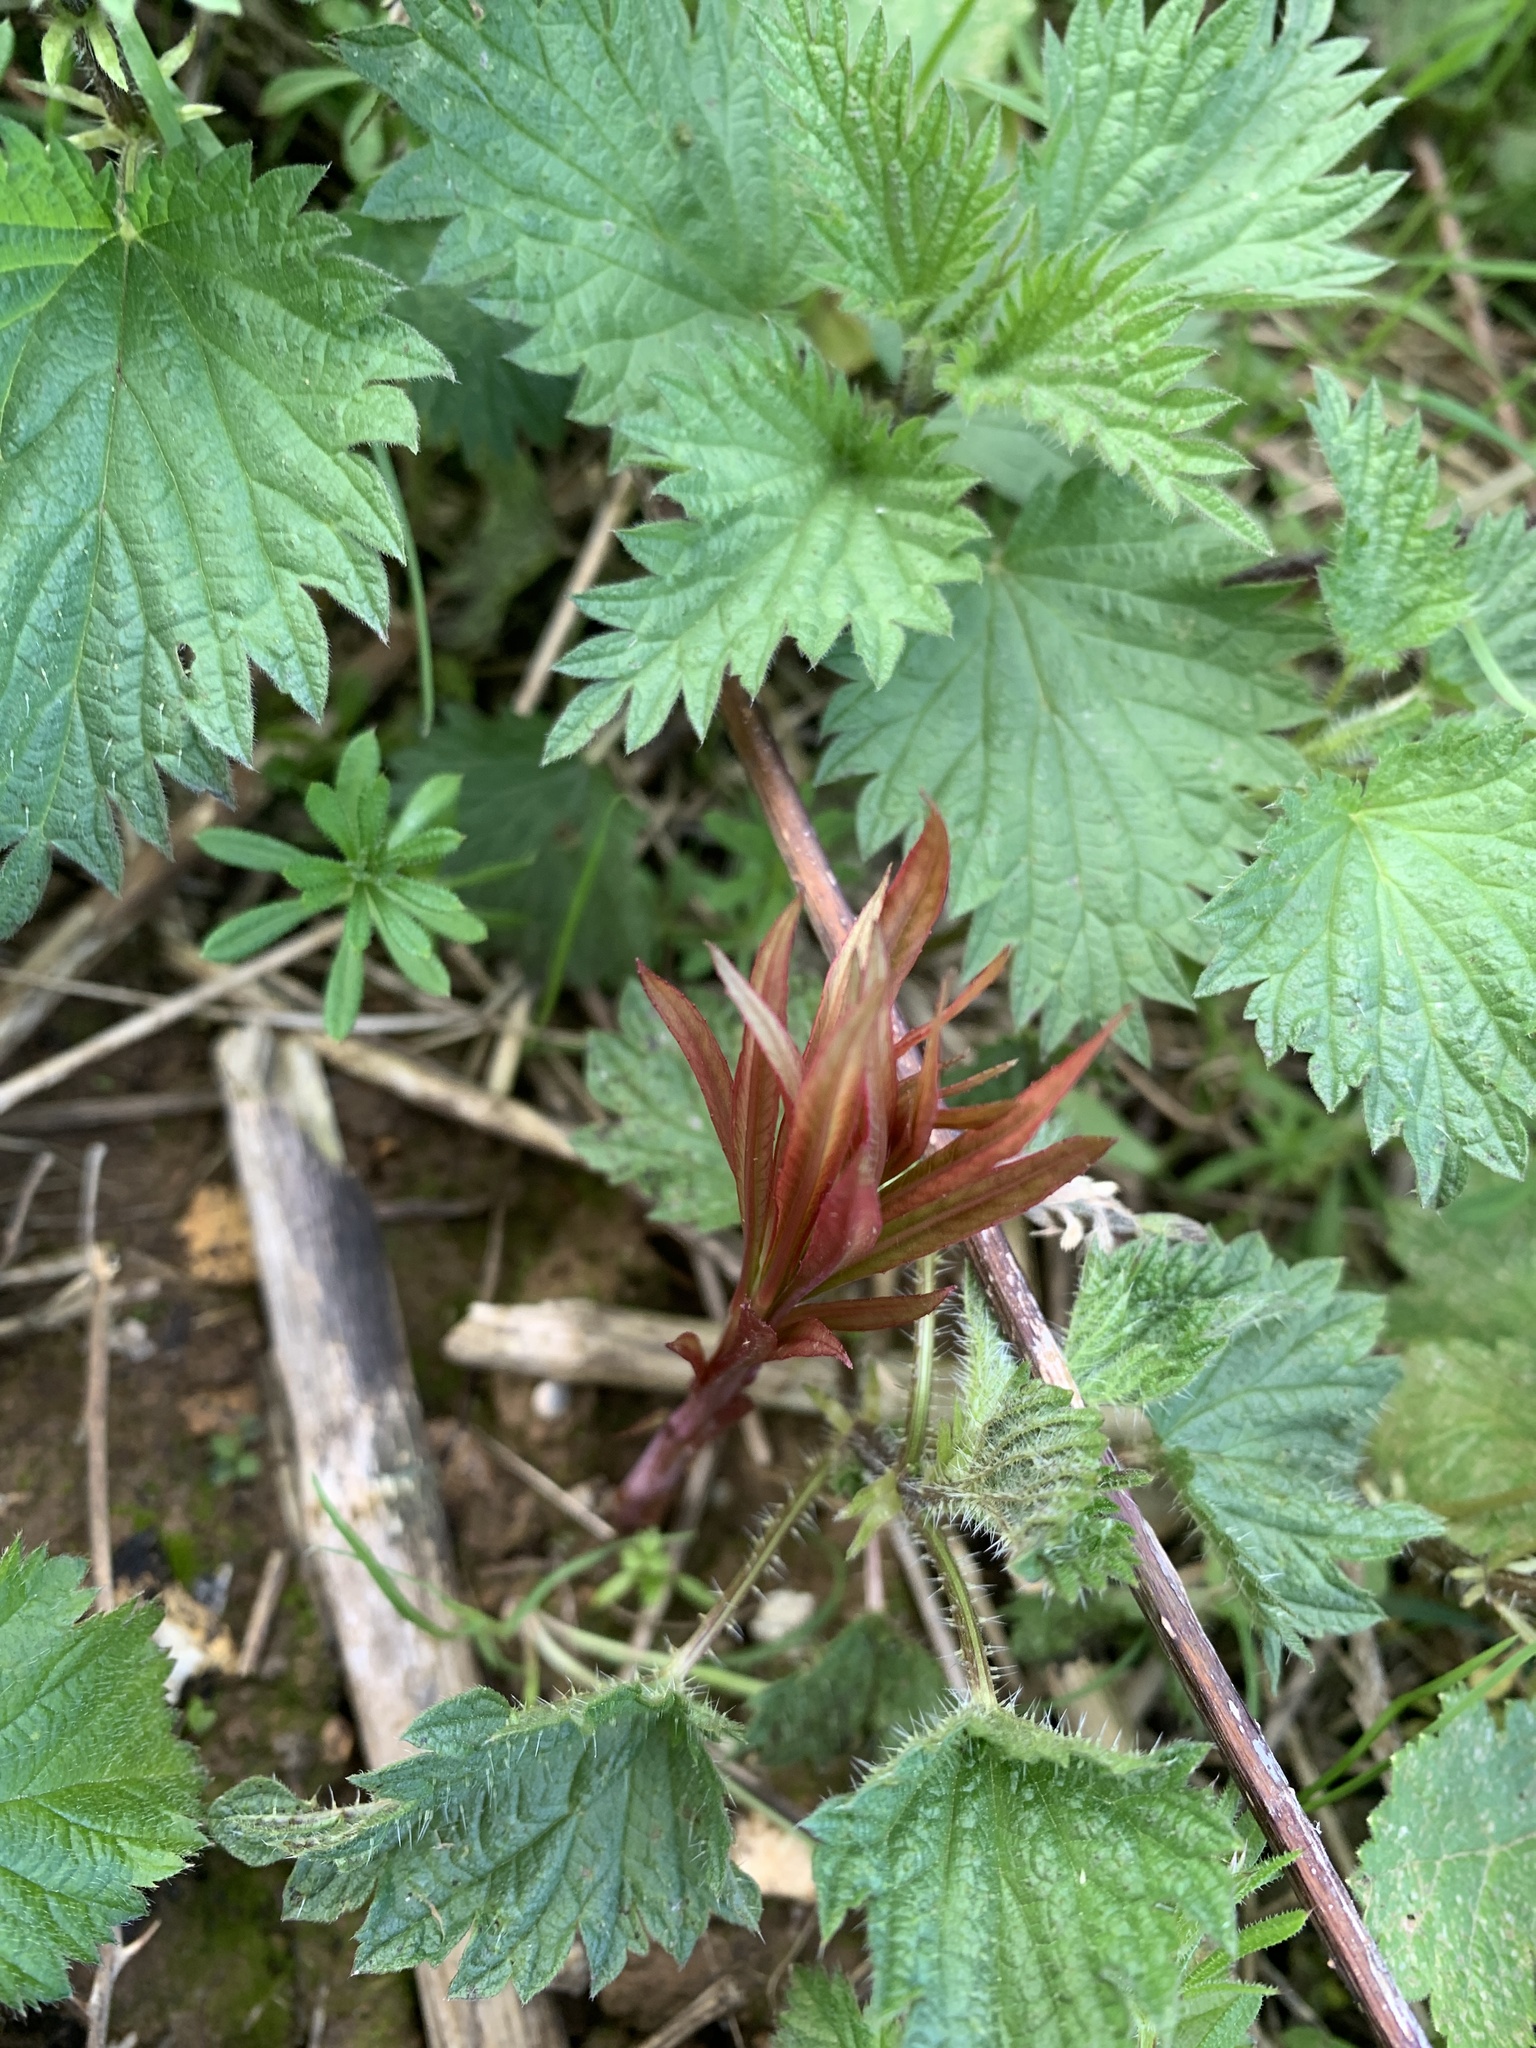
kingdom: Plantae
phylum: Tracheophyta
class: Magnoliopsida
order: Myrtales
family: Onagraceae
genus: Chamaenerion
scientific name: Chamaenerion angustifolium
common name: Fireweed
